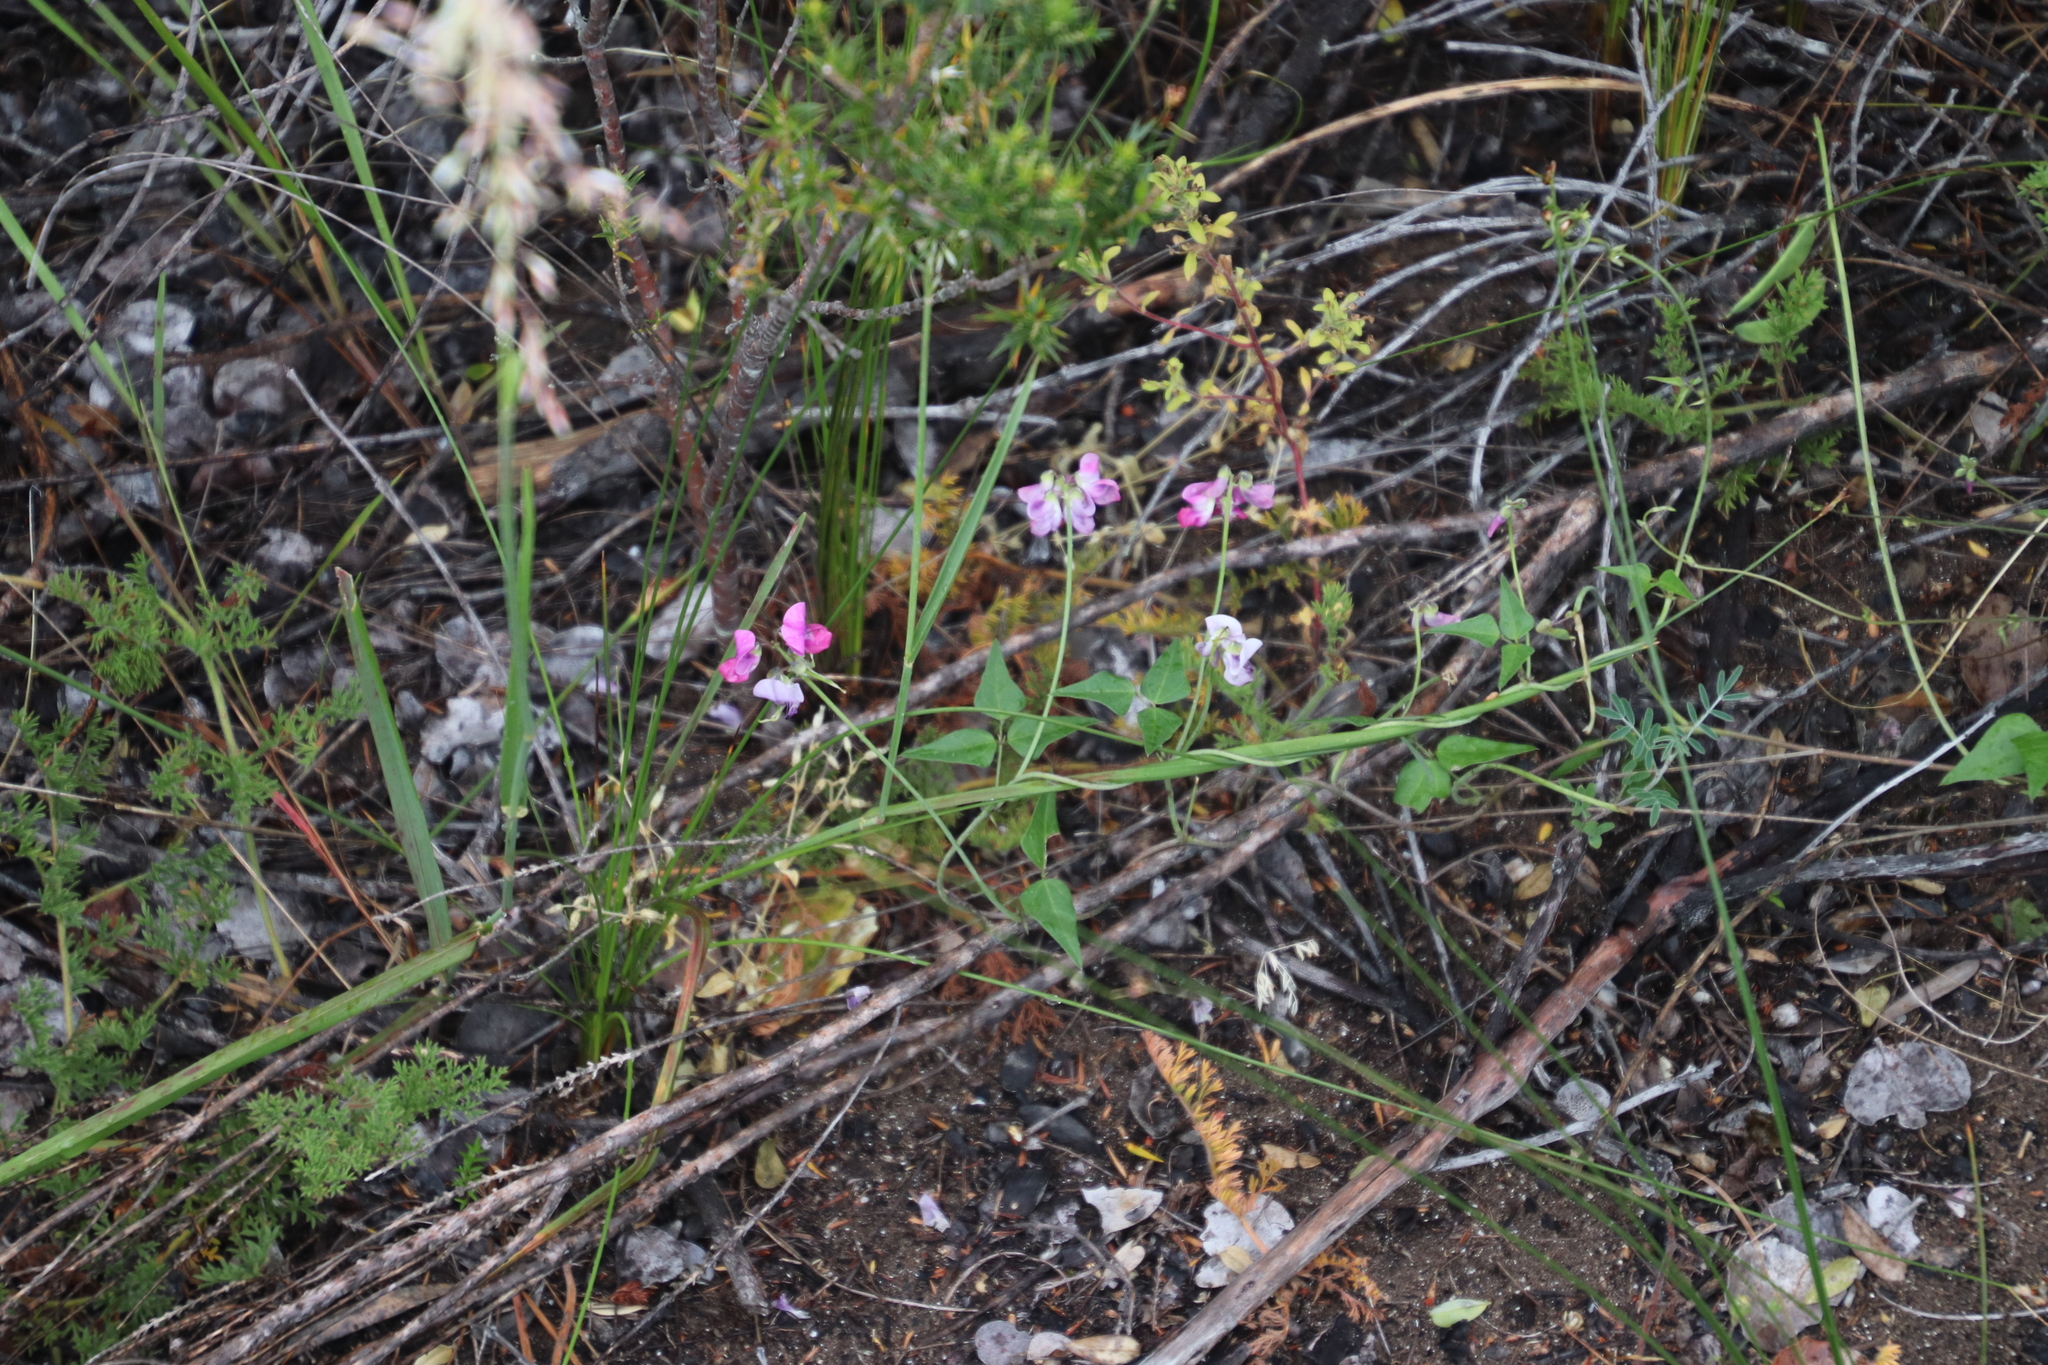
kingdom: Plantae
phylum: Tracheophyta
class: Magnoliopsida
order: Fabales
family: Fabaceae
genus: Dipogon
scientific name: Dipogon lignosus
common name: Okie bean
